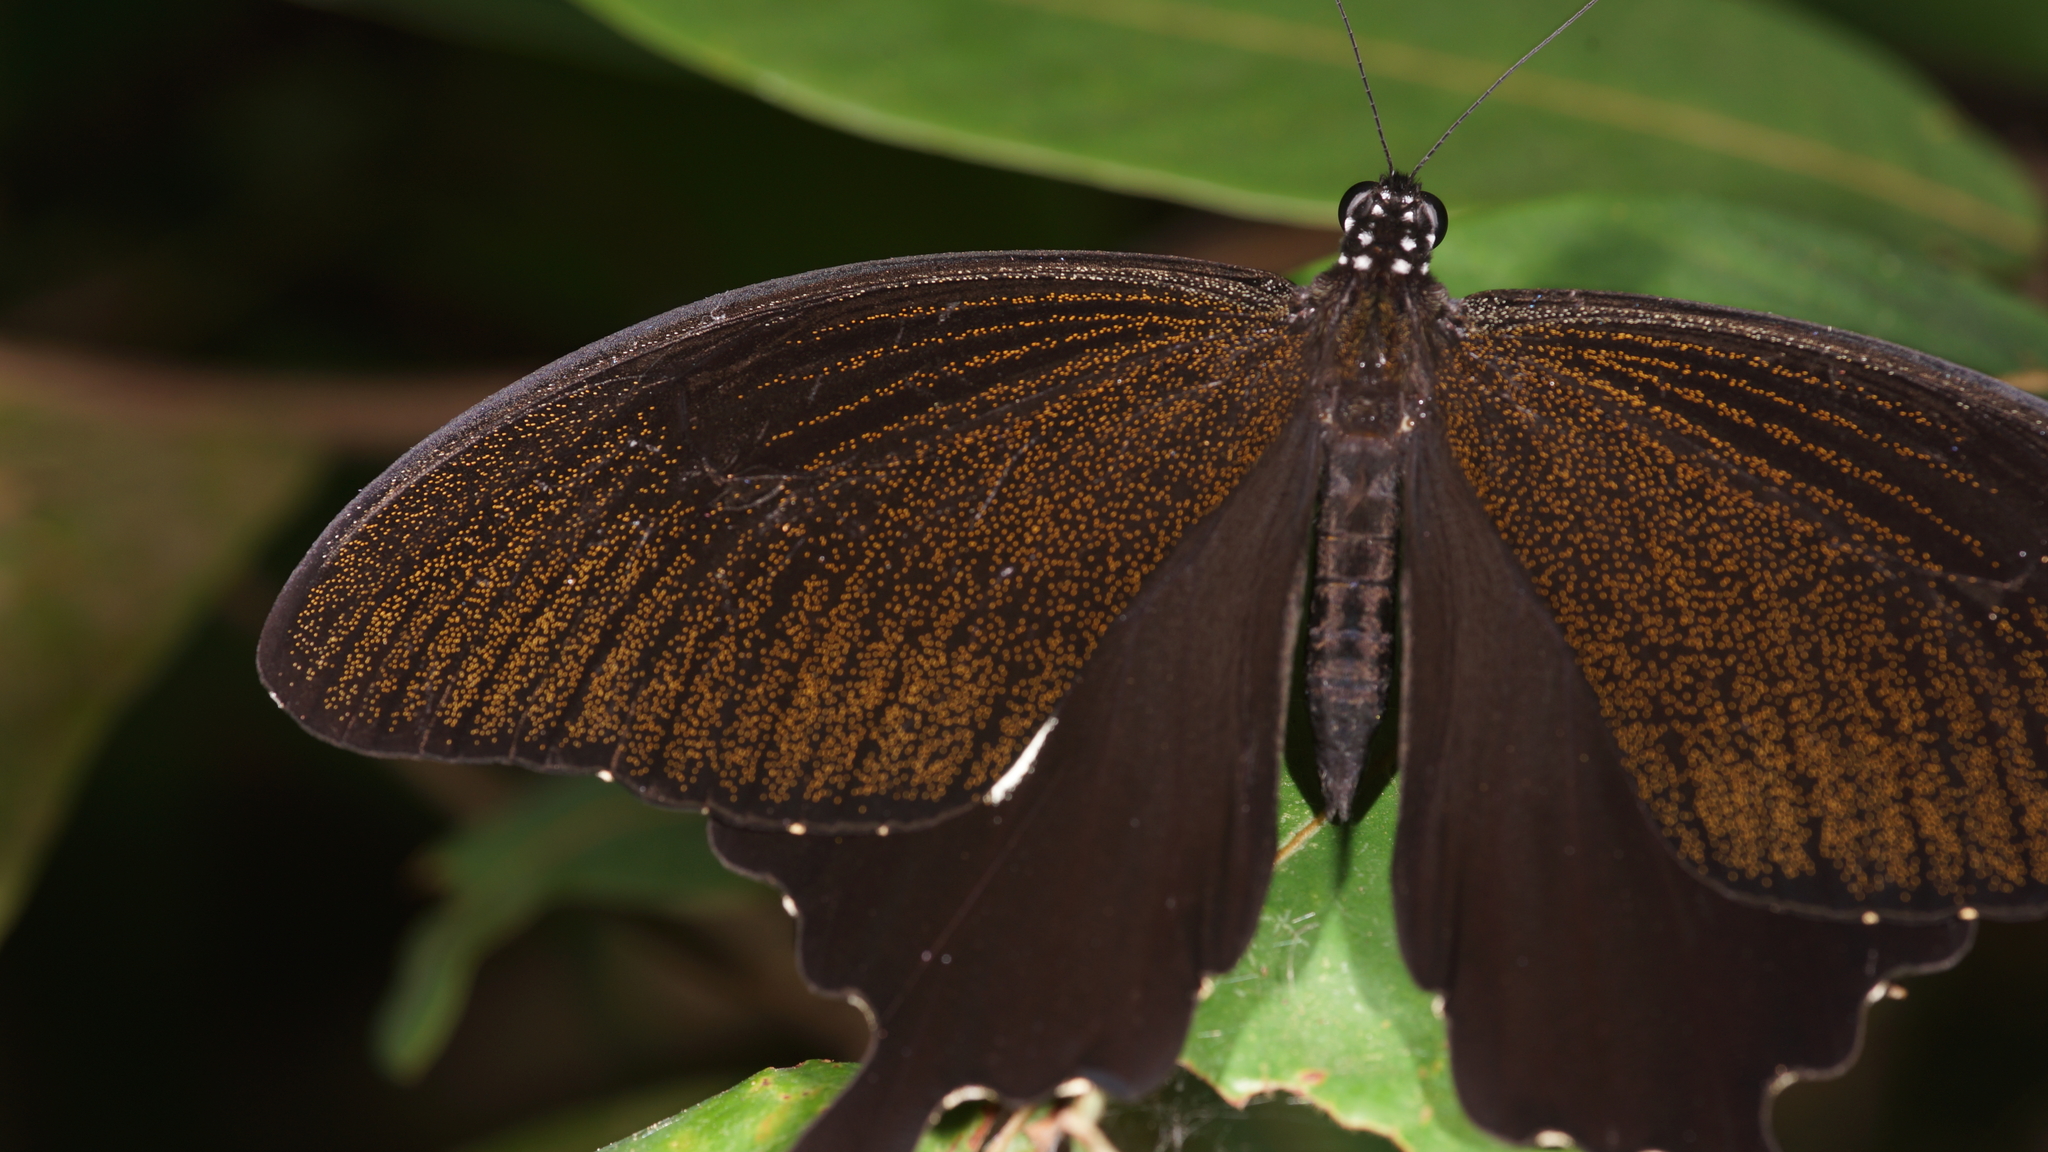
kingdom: Animalia
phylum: Arthropoda
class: Insecta
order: Lepidoptera
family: Papilionidae
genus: Atrophaneura
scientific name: Atrophaneura varuna
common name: Common batwing
